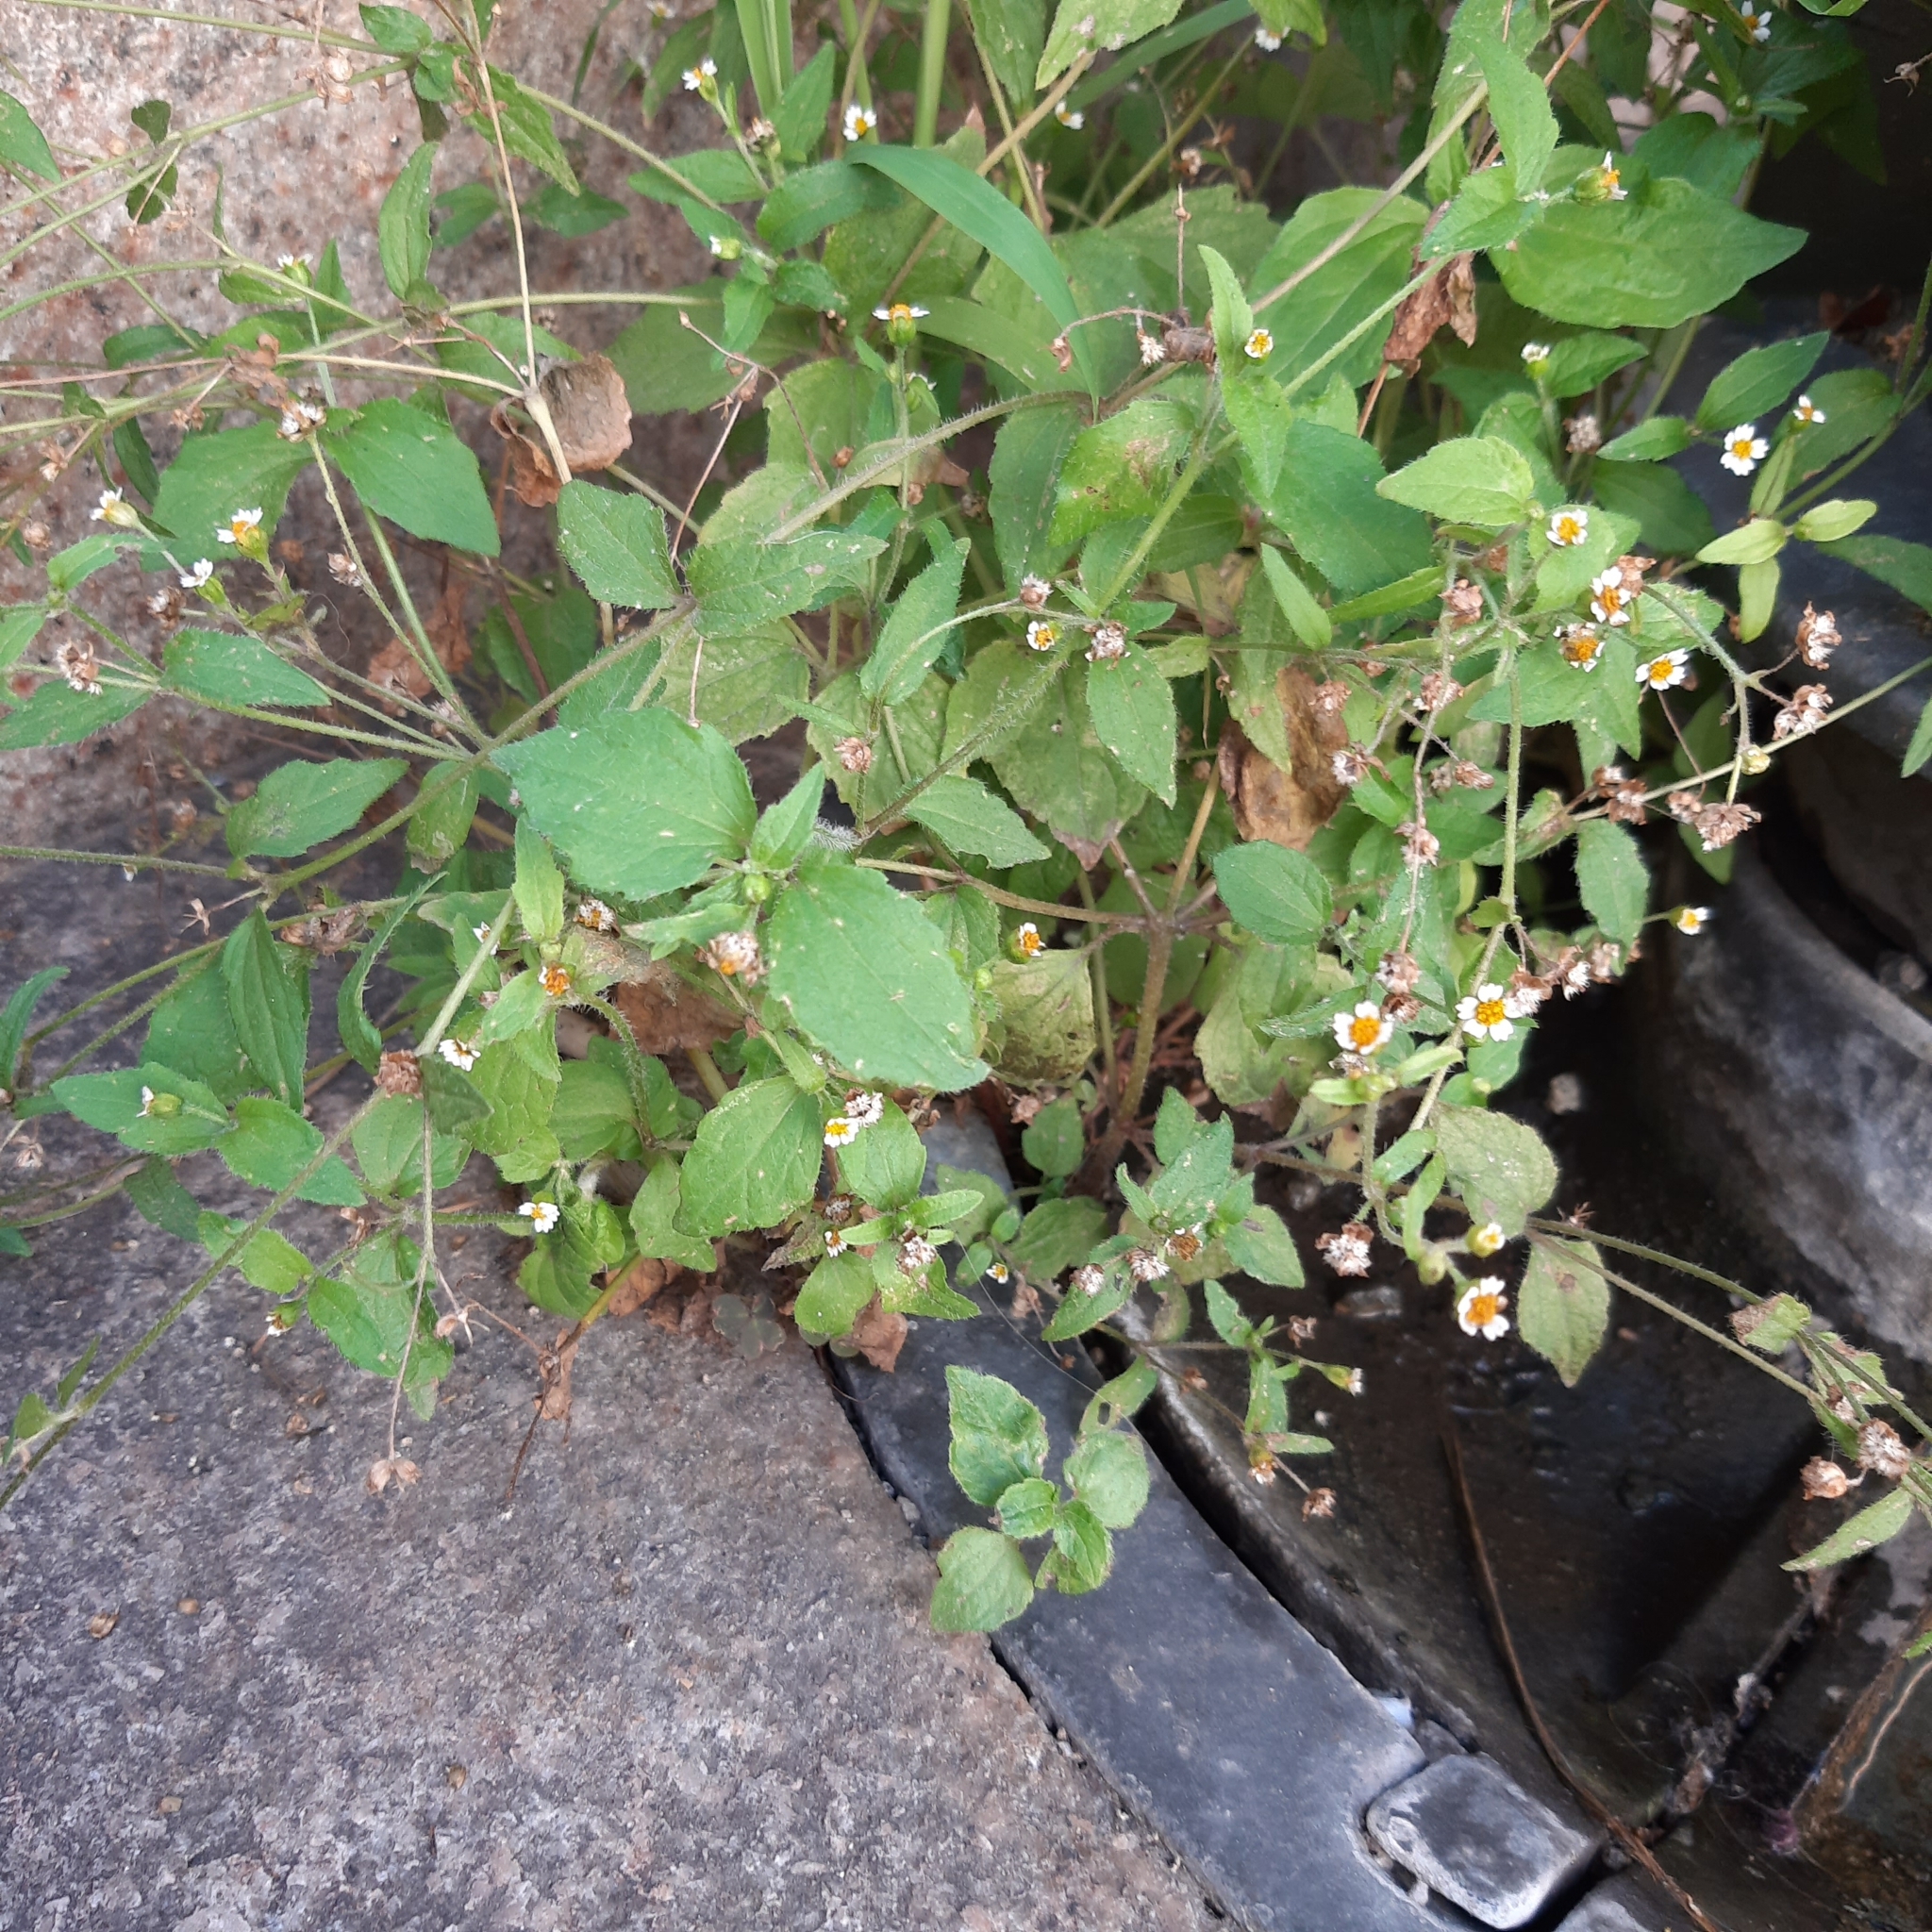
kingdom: Plantae
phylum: Tracheophyta
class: Magnoliopsida
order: Asterales
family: Asteraceae
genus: Galinsoga
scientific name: Galinsoga quadriradiata
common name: Shaggy soldier
